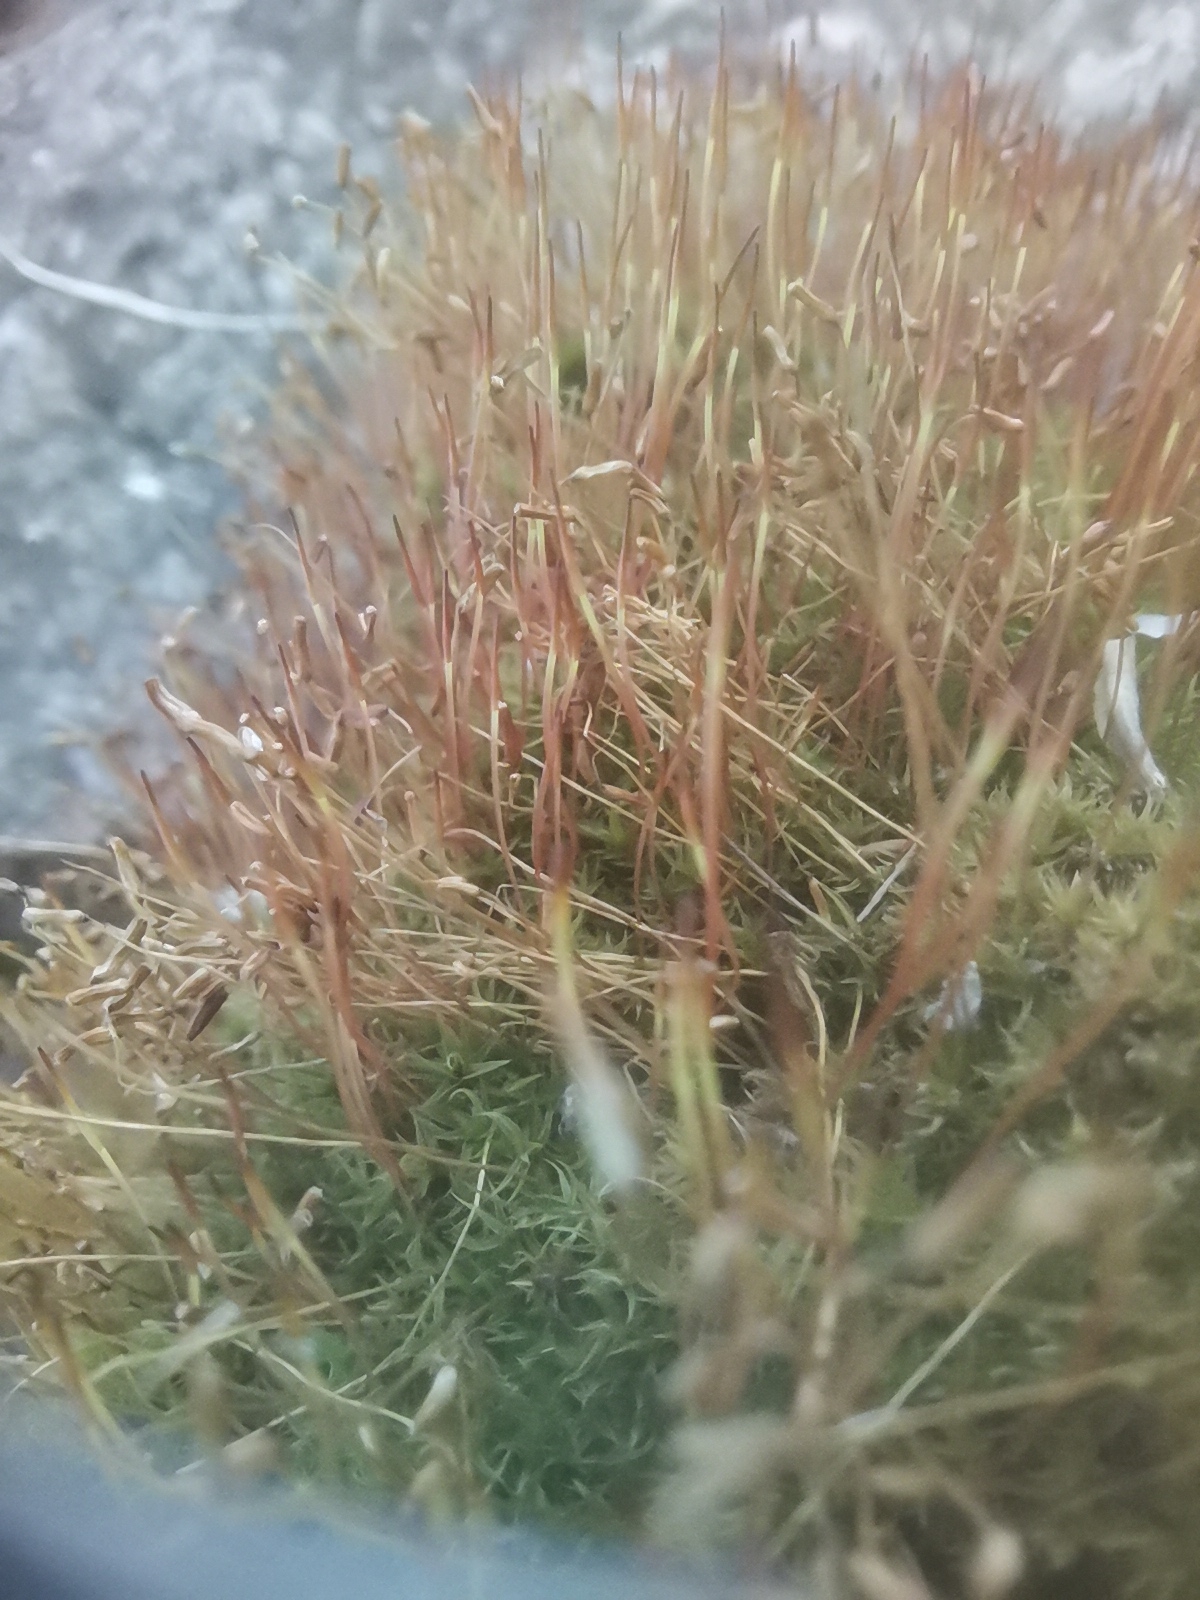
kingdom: Plantae
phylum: Bryophyta
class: Bryopsida
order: Dicranales
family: Ditrichaceae
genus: Ceratodon
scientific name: Ceratodon purpureus
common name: Redshank
